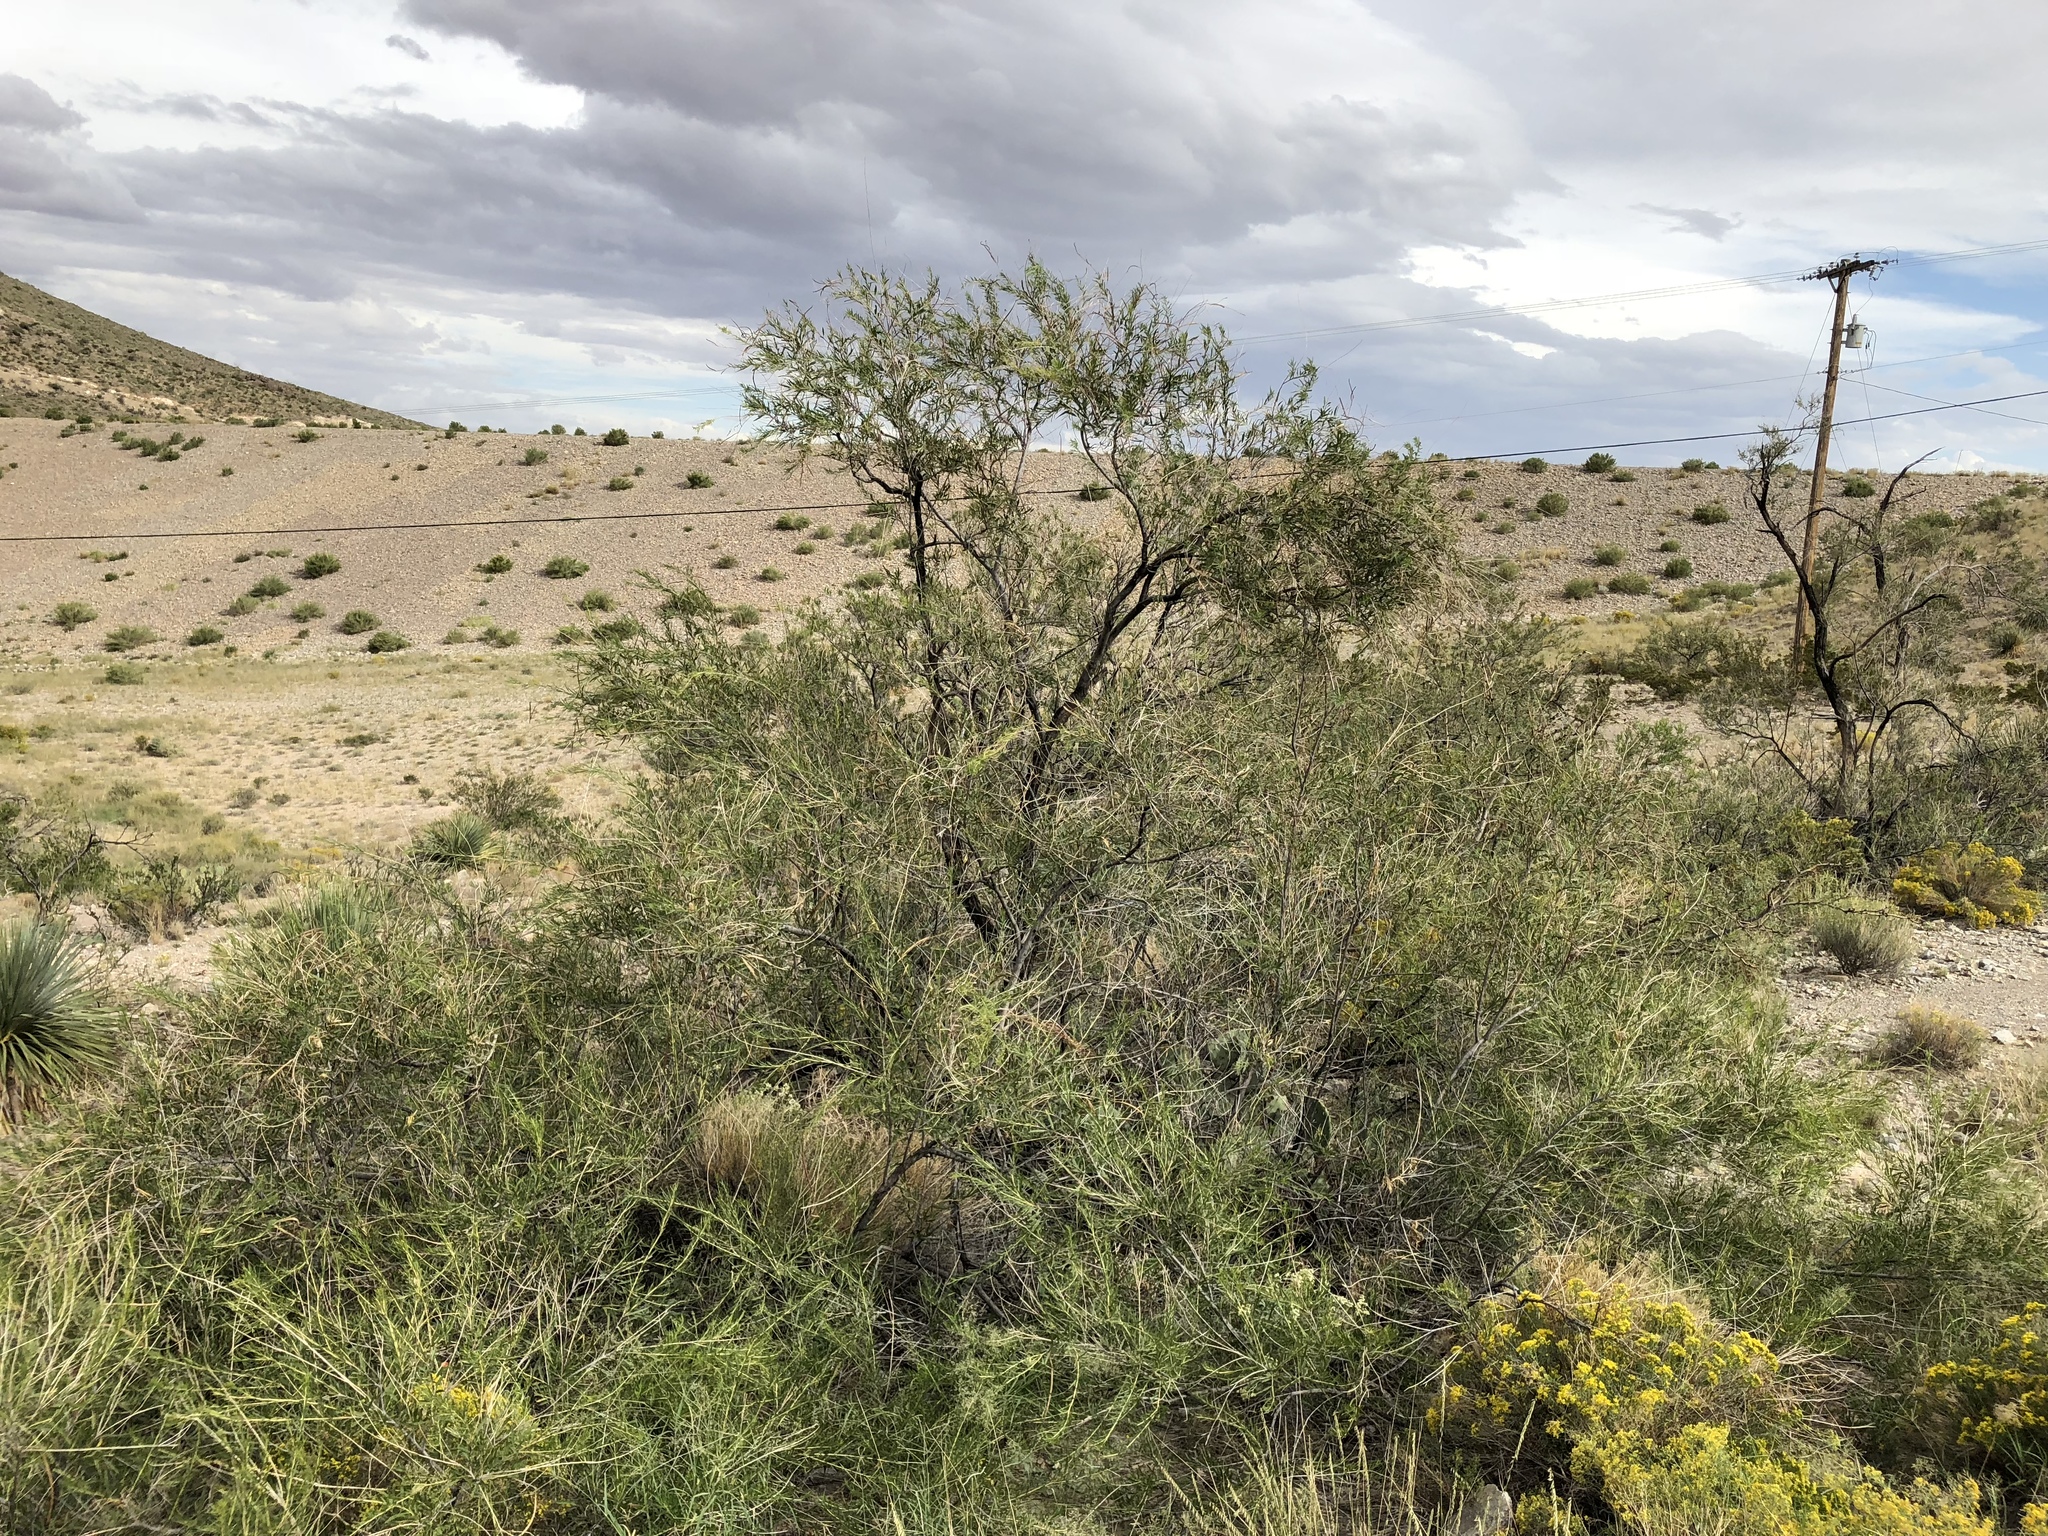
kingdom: Plantae
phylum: Tracheophyta
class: Magnoliopsida
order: Lamiales
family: Bignoniaceae
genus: Chilopsis
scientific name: Chilopsis linearis
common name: Desert-willow
